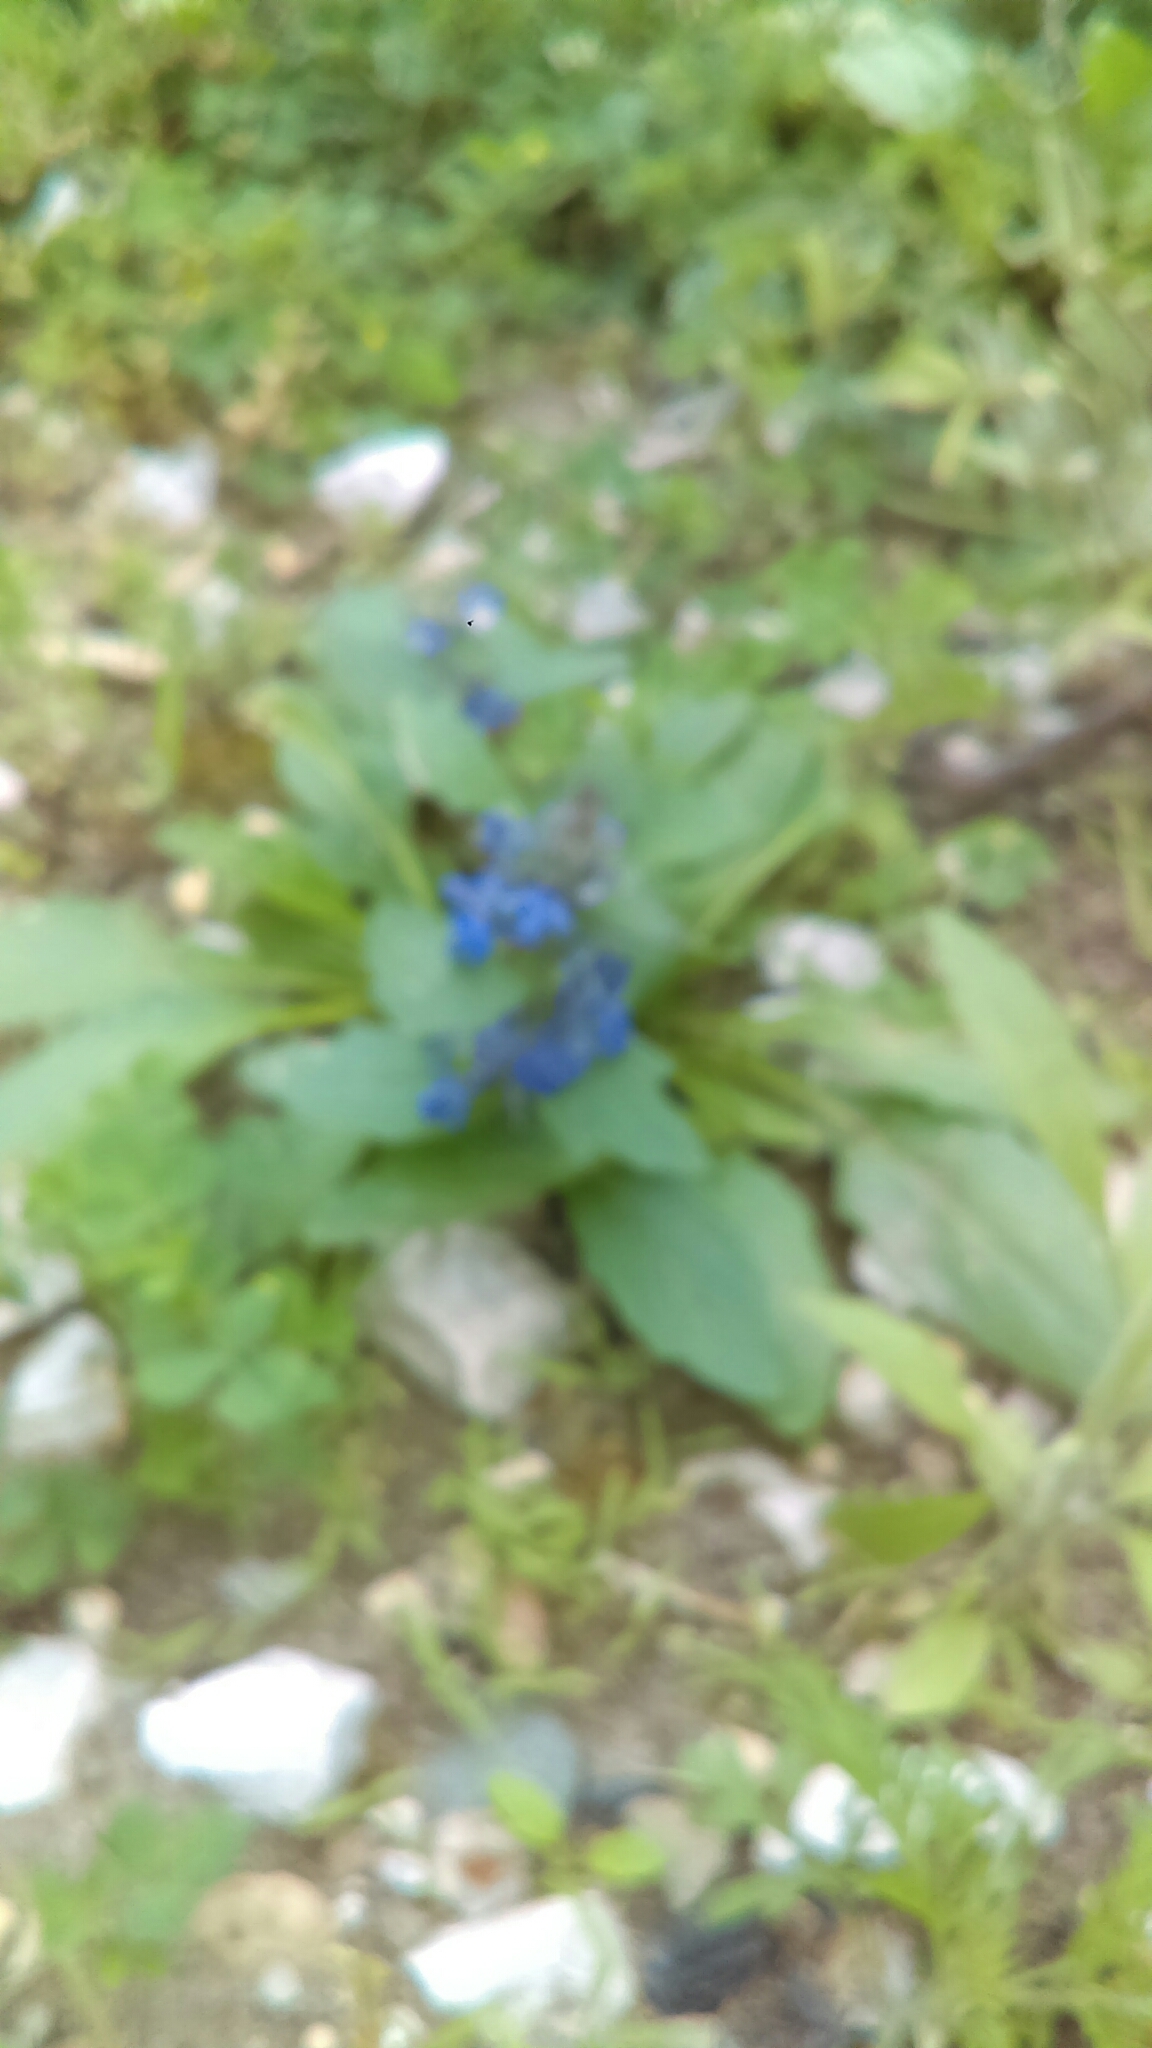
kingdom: Plantae
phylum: Tracheophyta
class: Magnoliopsida
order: Lamiales
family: Lamiaceae
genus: Ajuga
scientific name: Ajuga reptans
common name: Bugle
